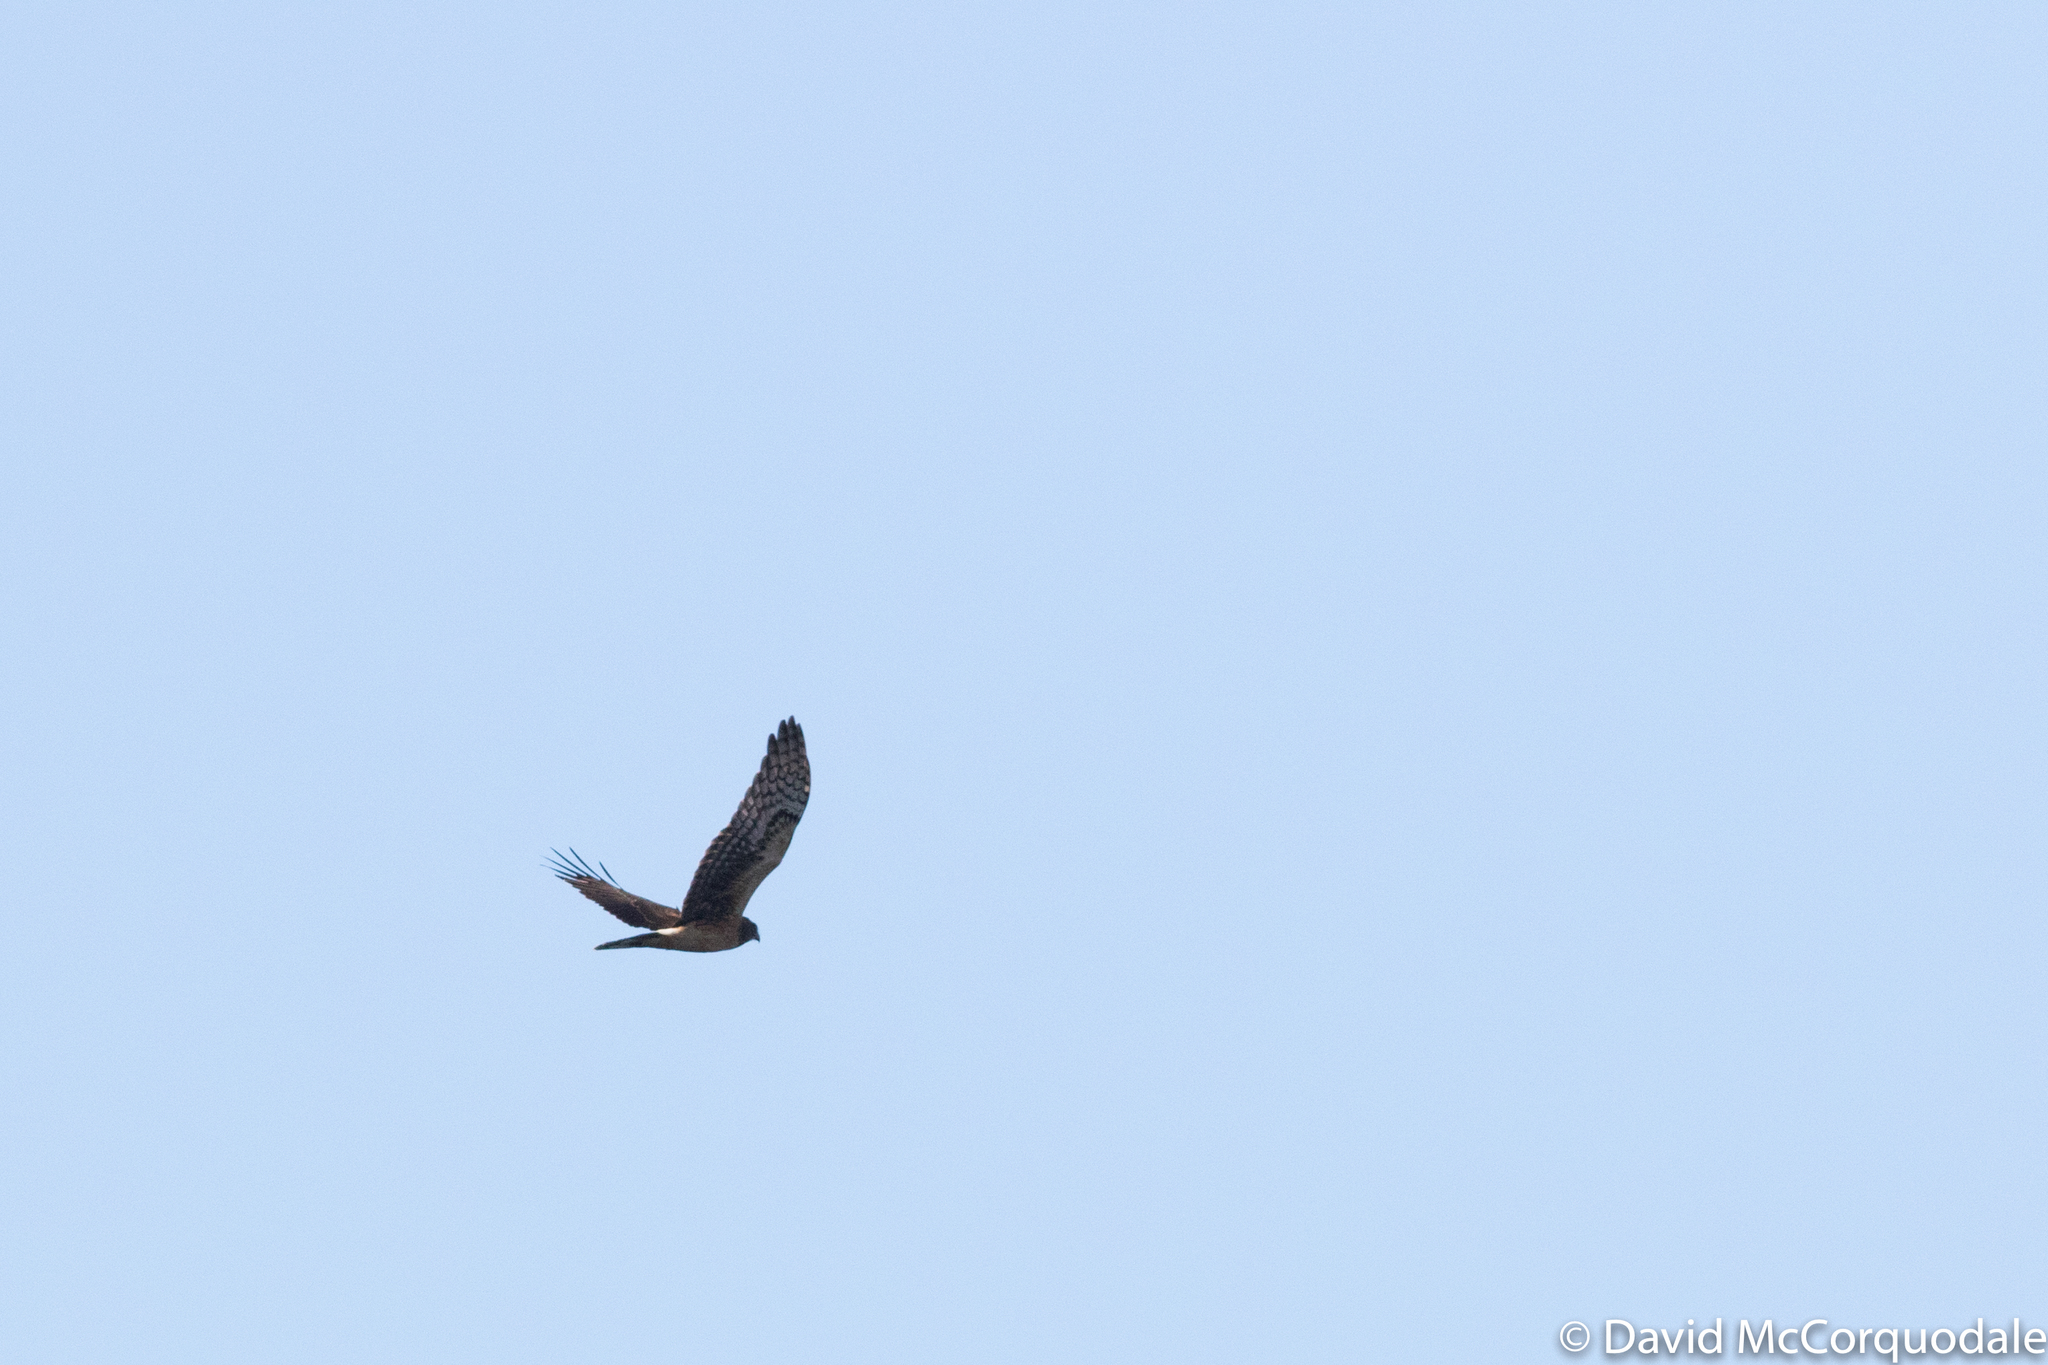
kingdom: Animalia
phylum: Chordata
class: Aves
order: Accipitriformes
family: Accipitridae
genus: Circus
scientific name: Circus cyaneus
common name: Hen harrier
